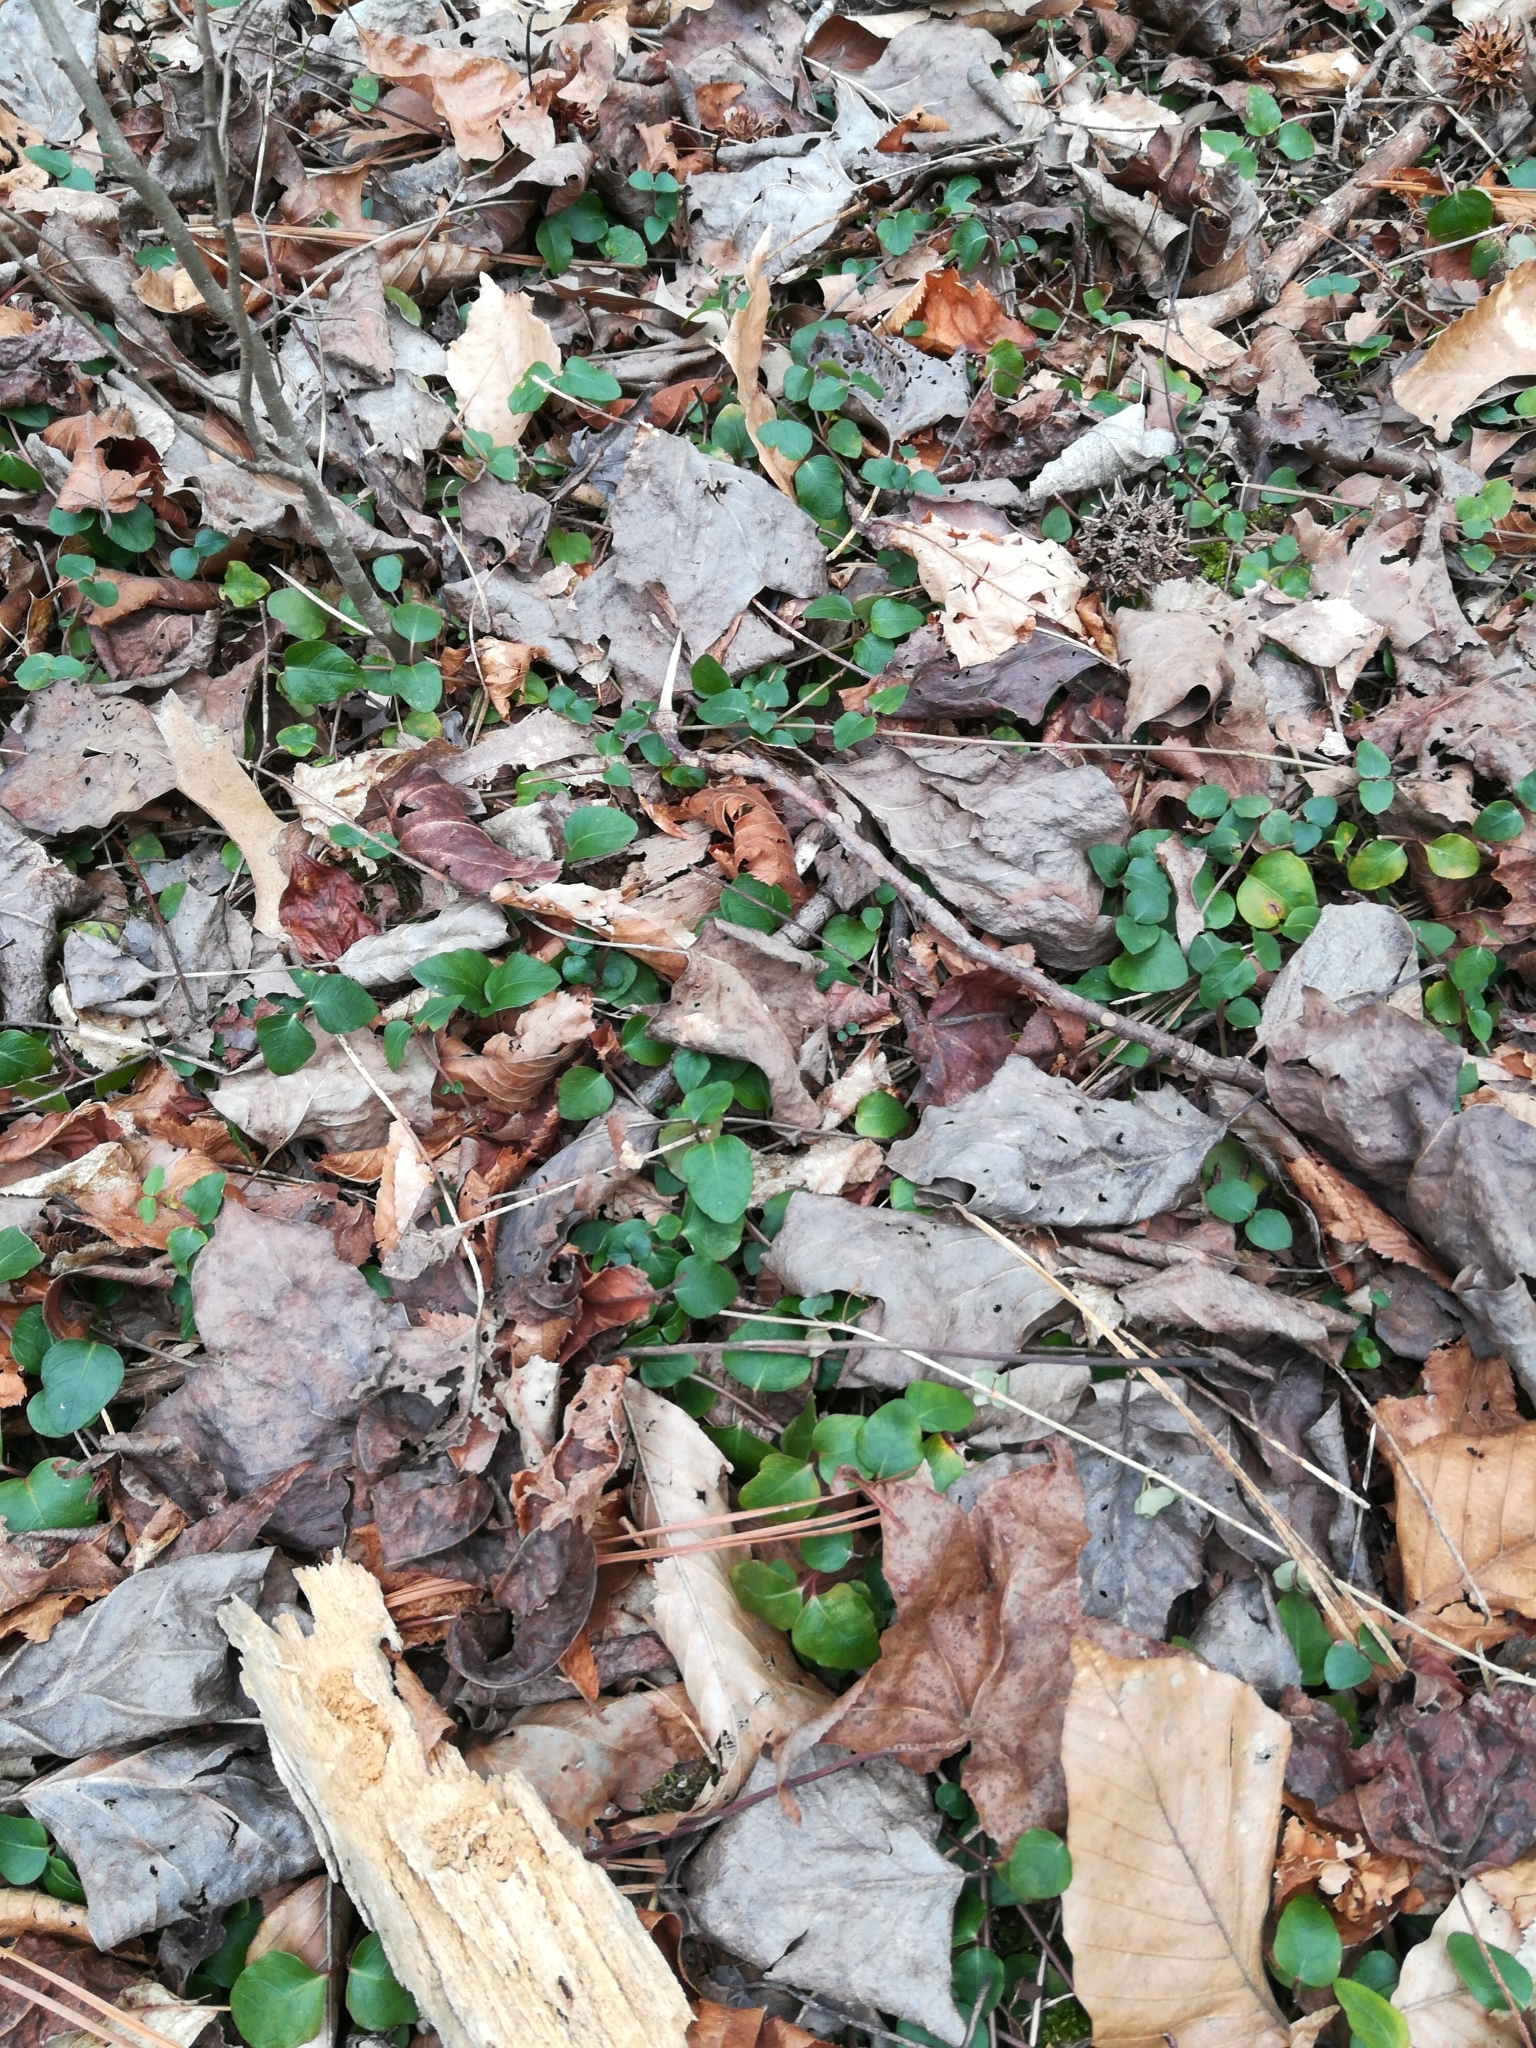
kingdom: Plantae
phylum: Tracheophyta
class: Magnoliopsida
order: Gentianales
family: Rubiaceae
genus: Mitchella
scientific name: Mitchella repens
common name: Partridge-berry
